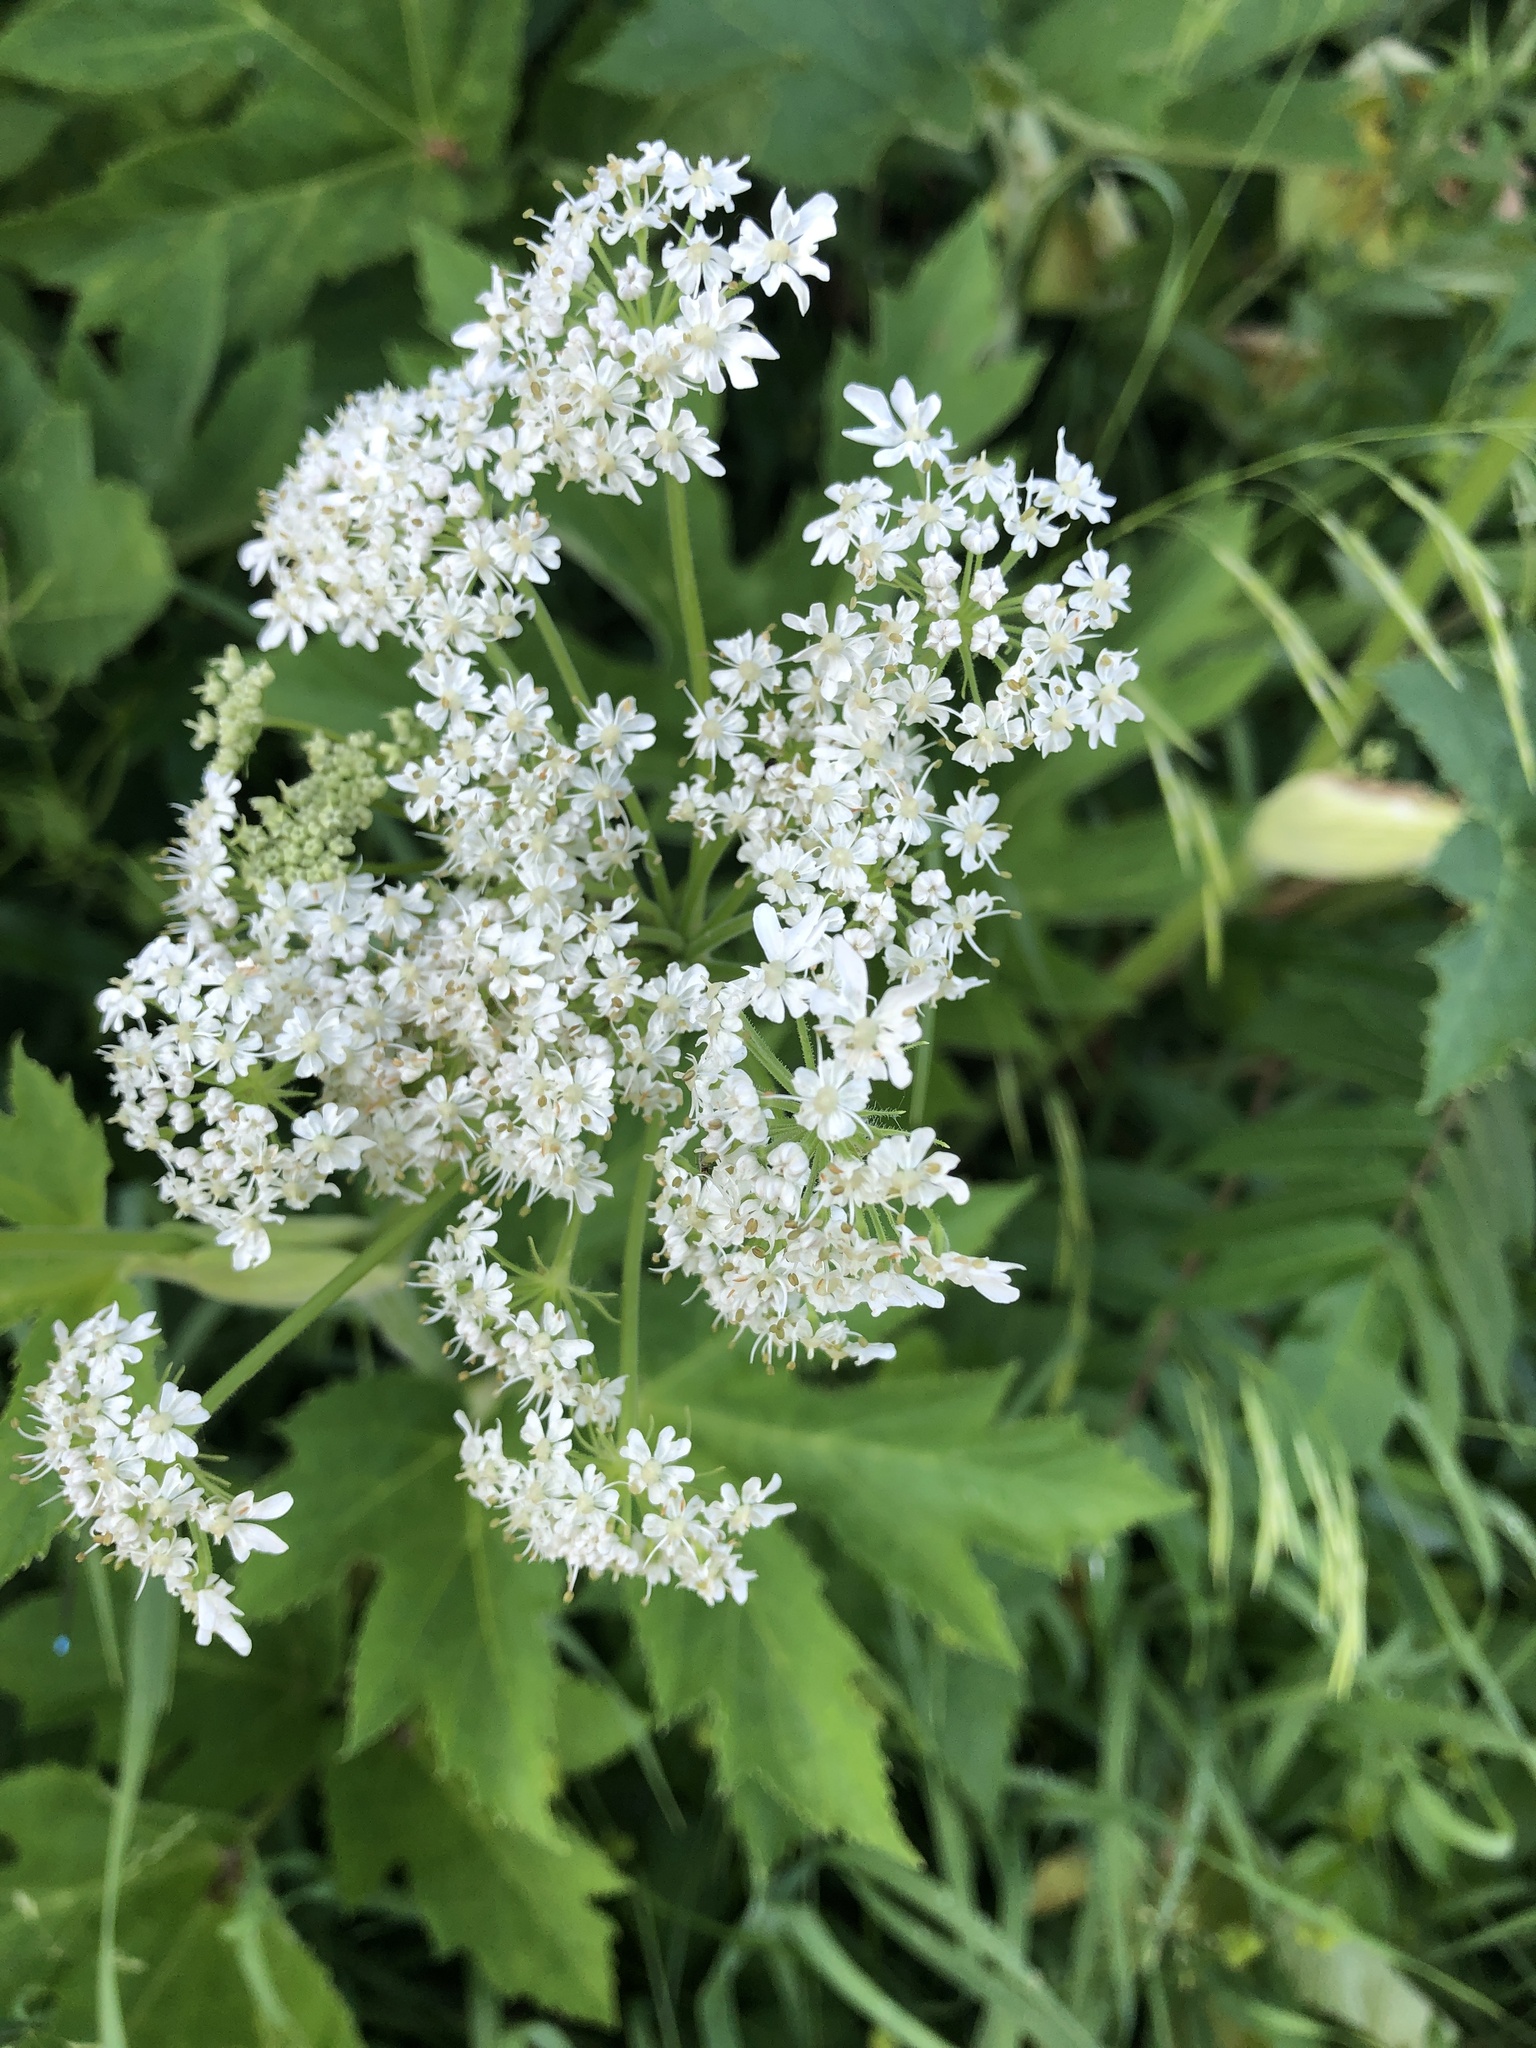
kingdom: Plantae
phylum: Tracheophyta
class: Magnoliopsida
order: Apiales
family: Apiaceae
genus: Heracleum
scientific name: Heracleum maximum
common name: American cow parsnip
